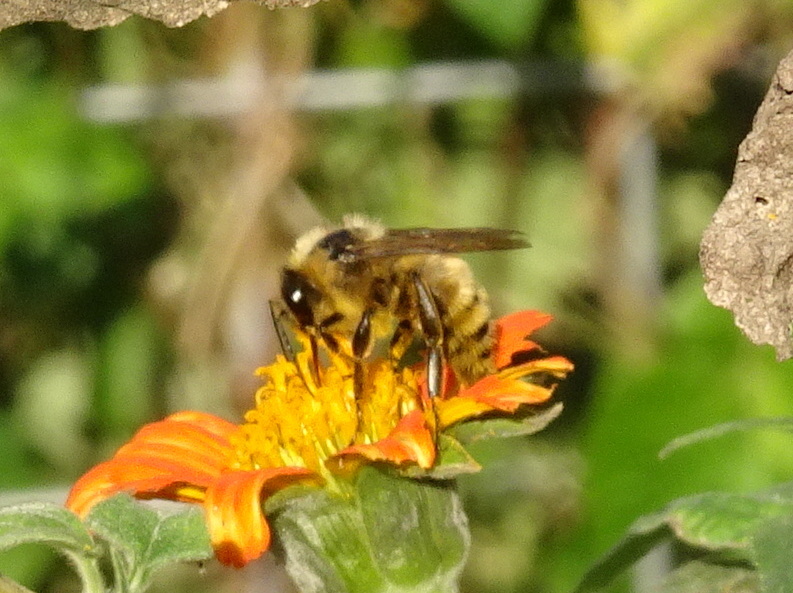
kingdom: Animalia
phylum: Arthropoda
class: Insecta
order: Hymenoptera
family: Apidae
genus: Bombus
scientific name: Bombus pensylvanicus
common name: Bumble bee
